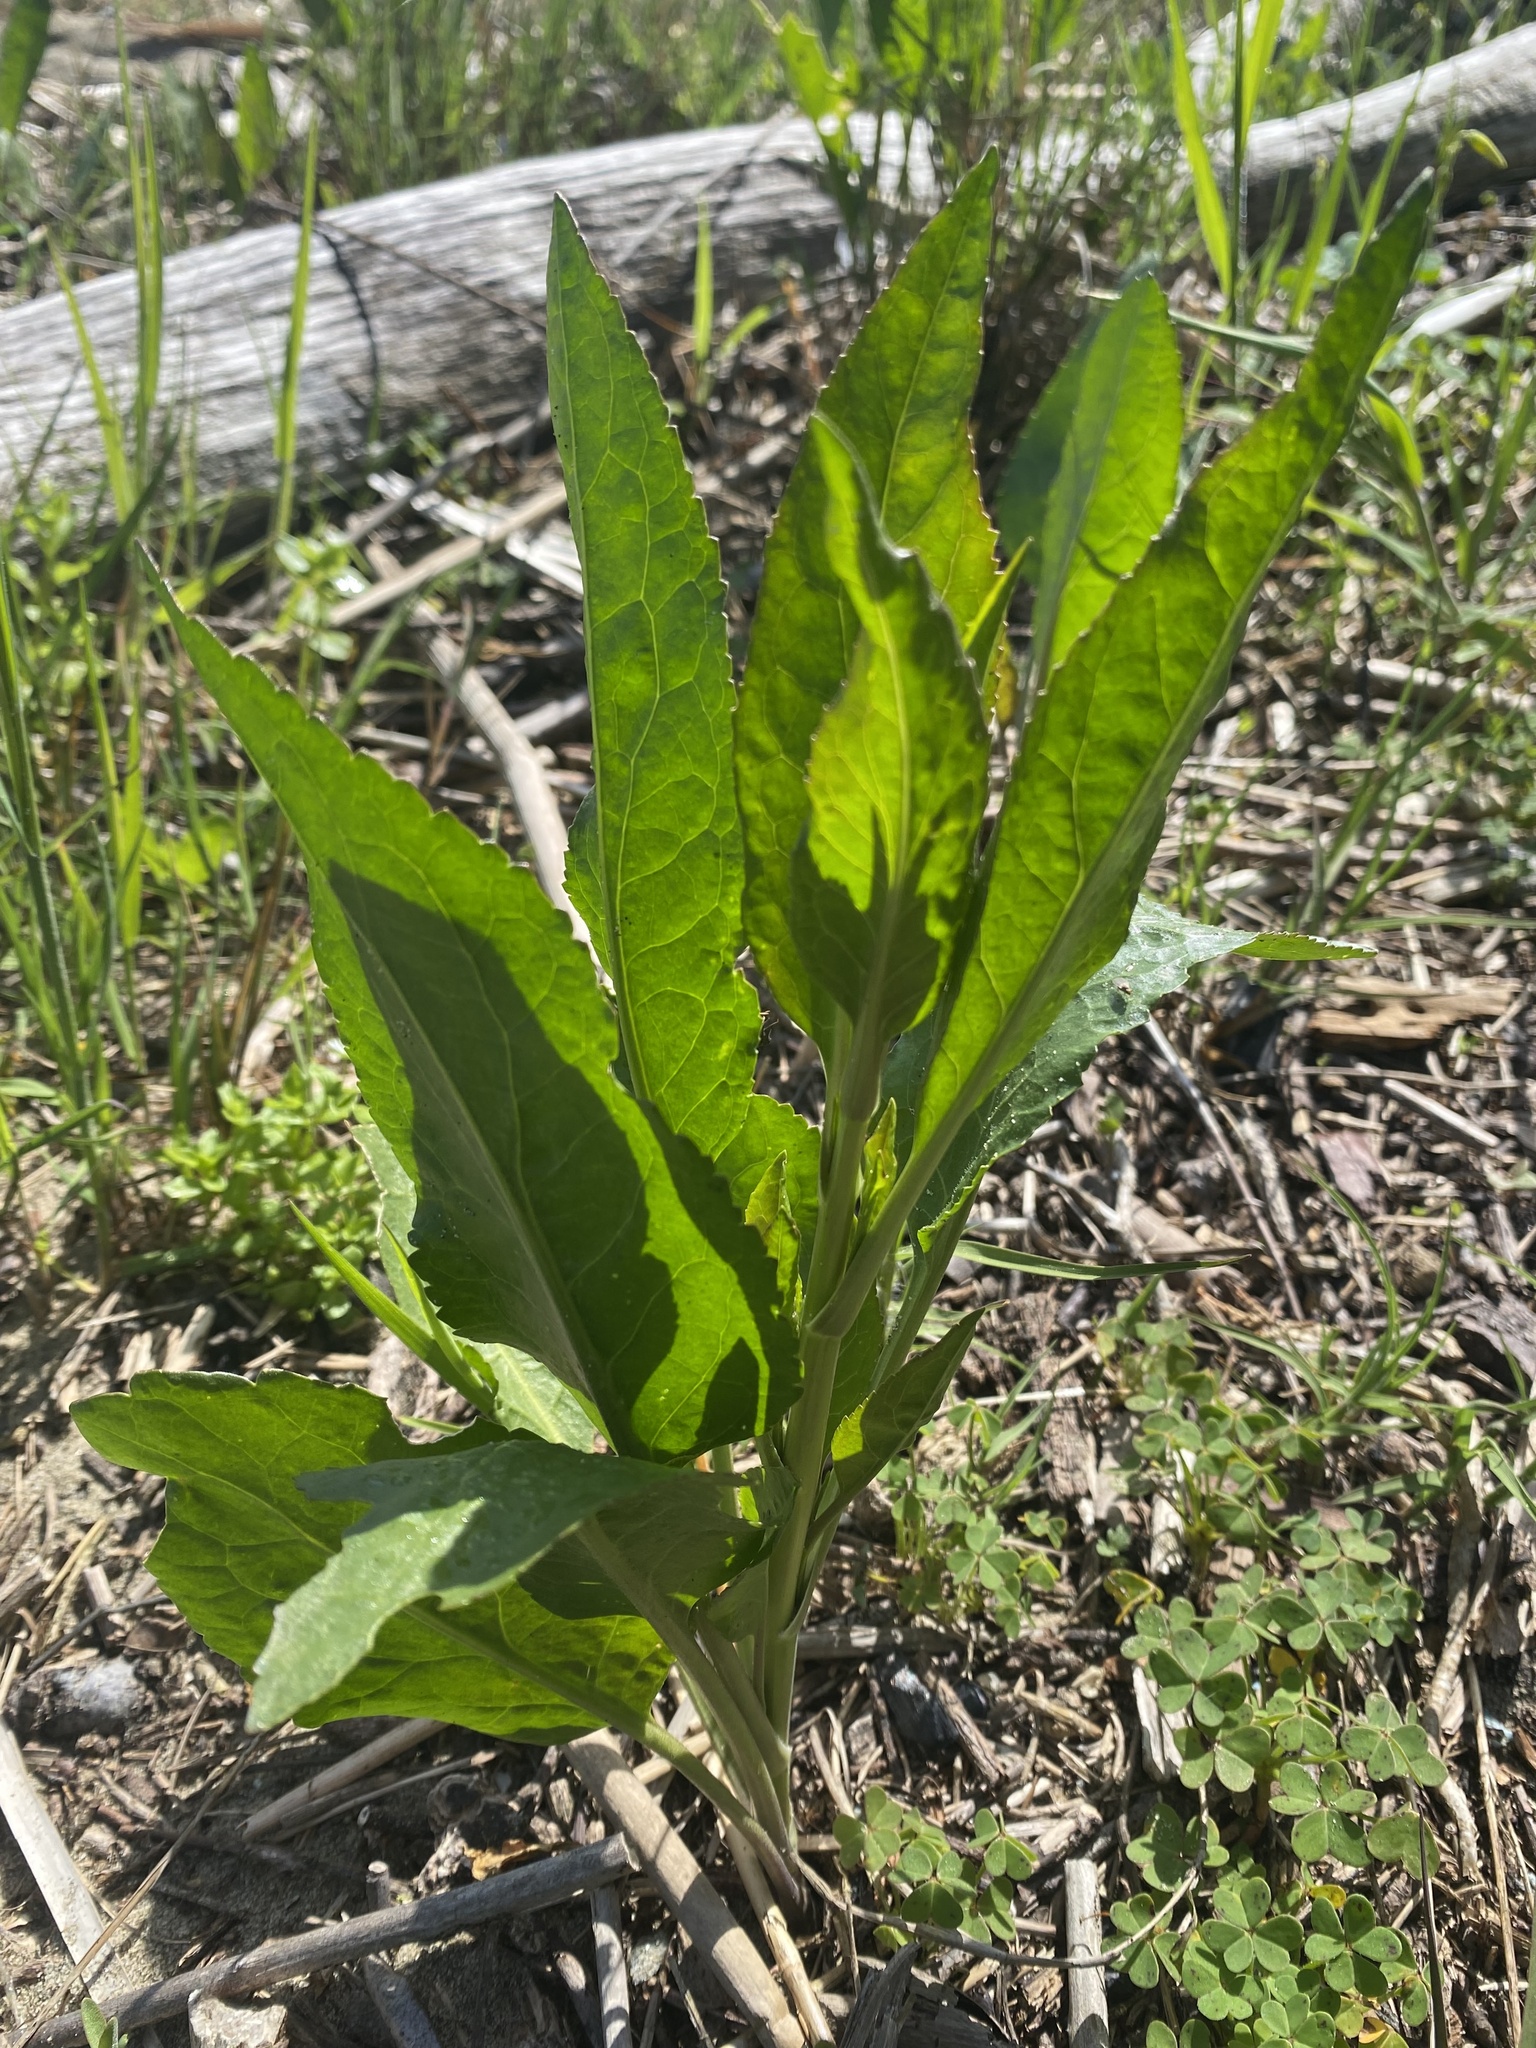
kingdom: Plantae
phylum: Tracheophyta
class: Magnoliopsida
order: Brassicales
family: Brassicaceae
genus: Lepidium
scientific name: Lepidium latifolium
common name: Dittander
